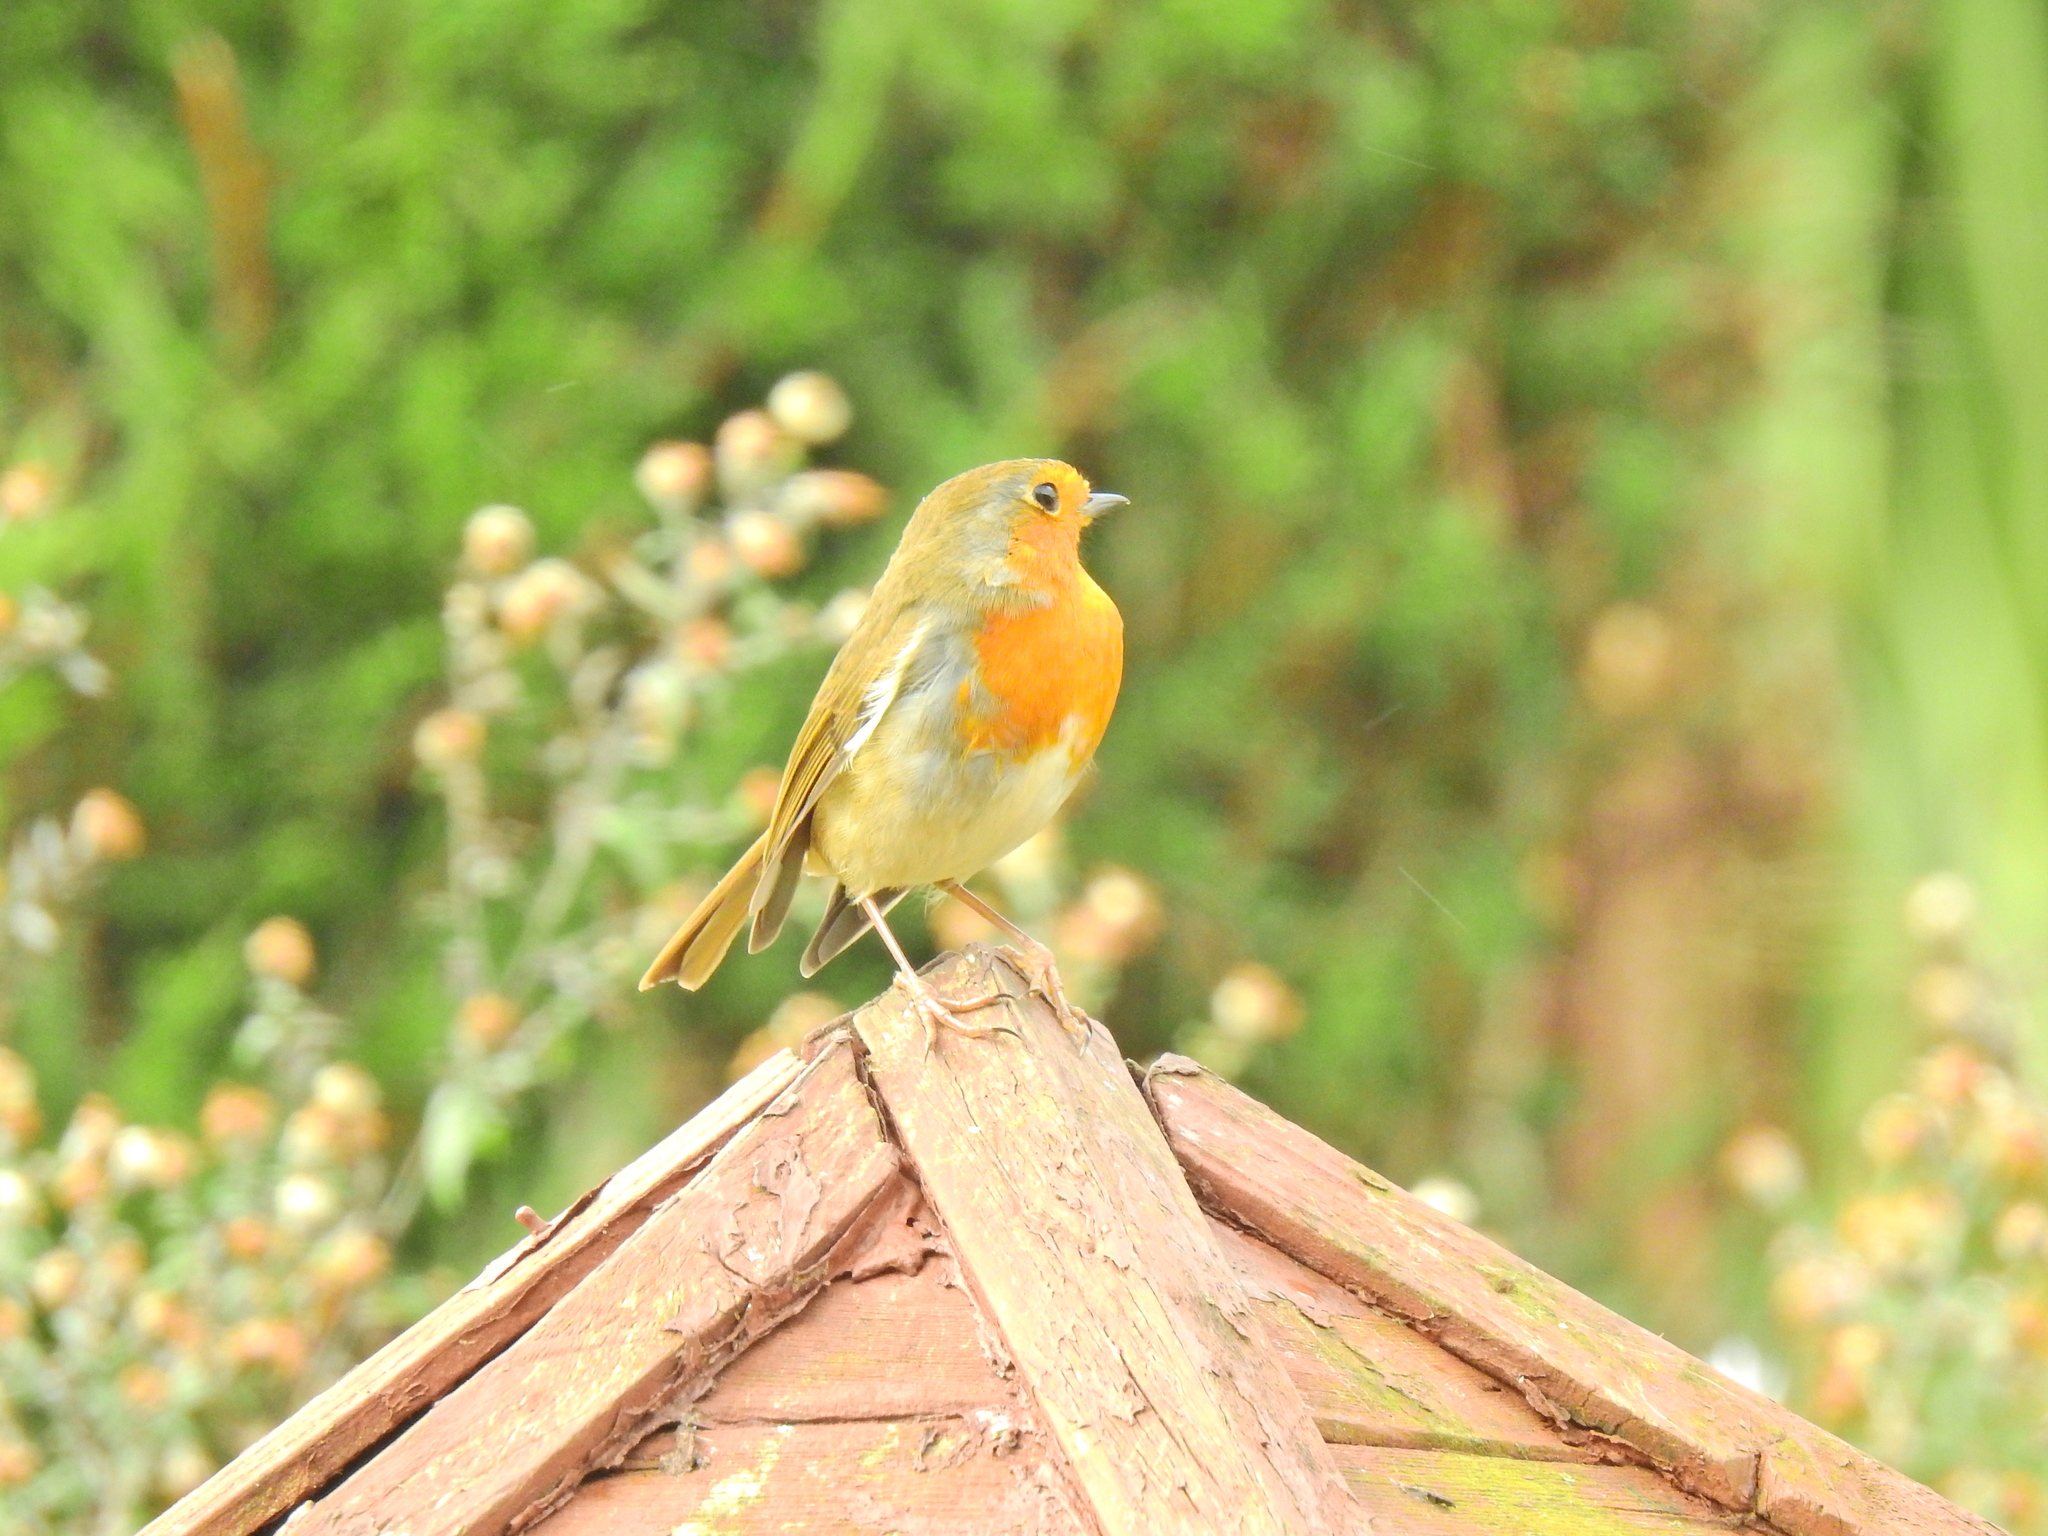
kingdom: Animalia
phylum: Chordata
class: Aves
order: Passeriformes
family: Muscicapidae
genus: Erithacus
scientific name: Erithacus rubecula
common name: European robin
